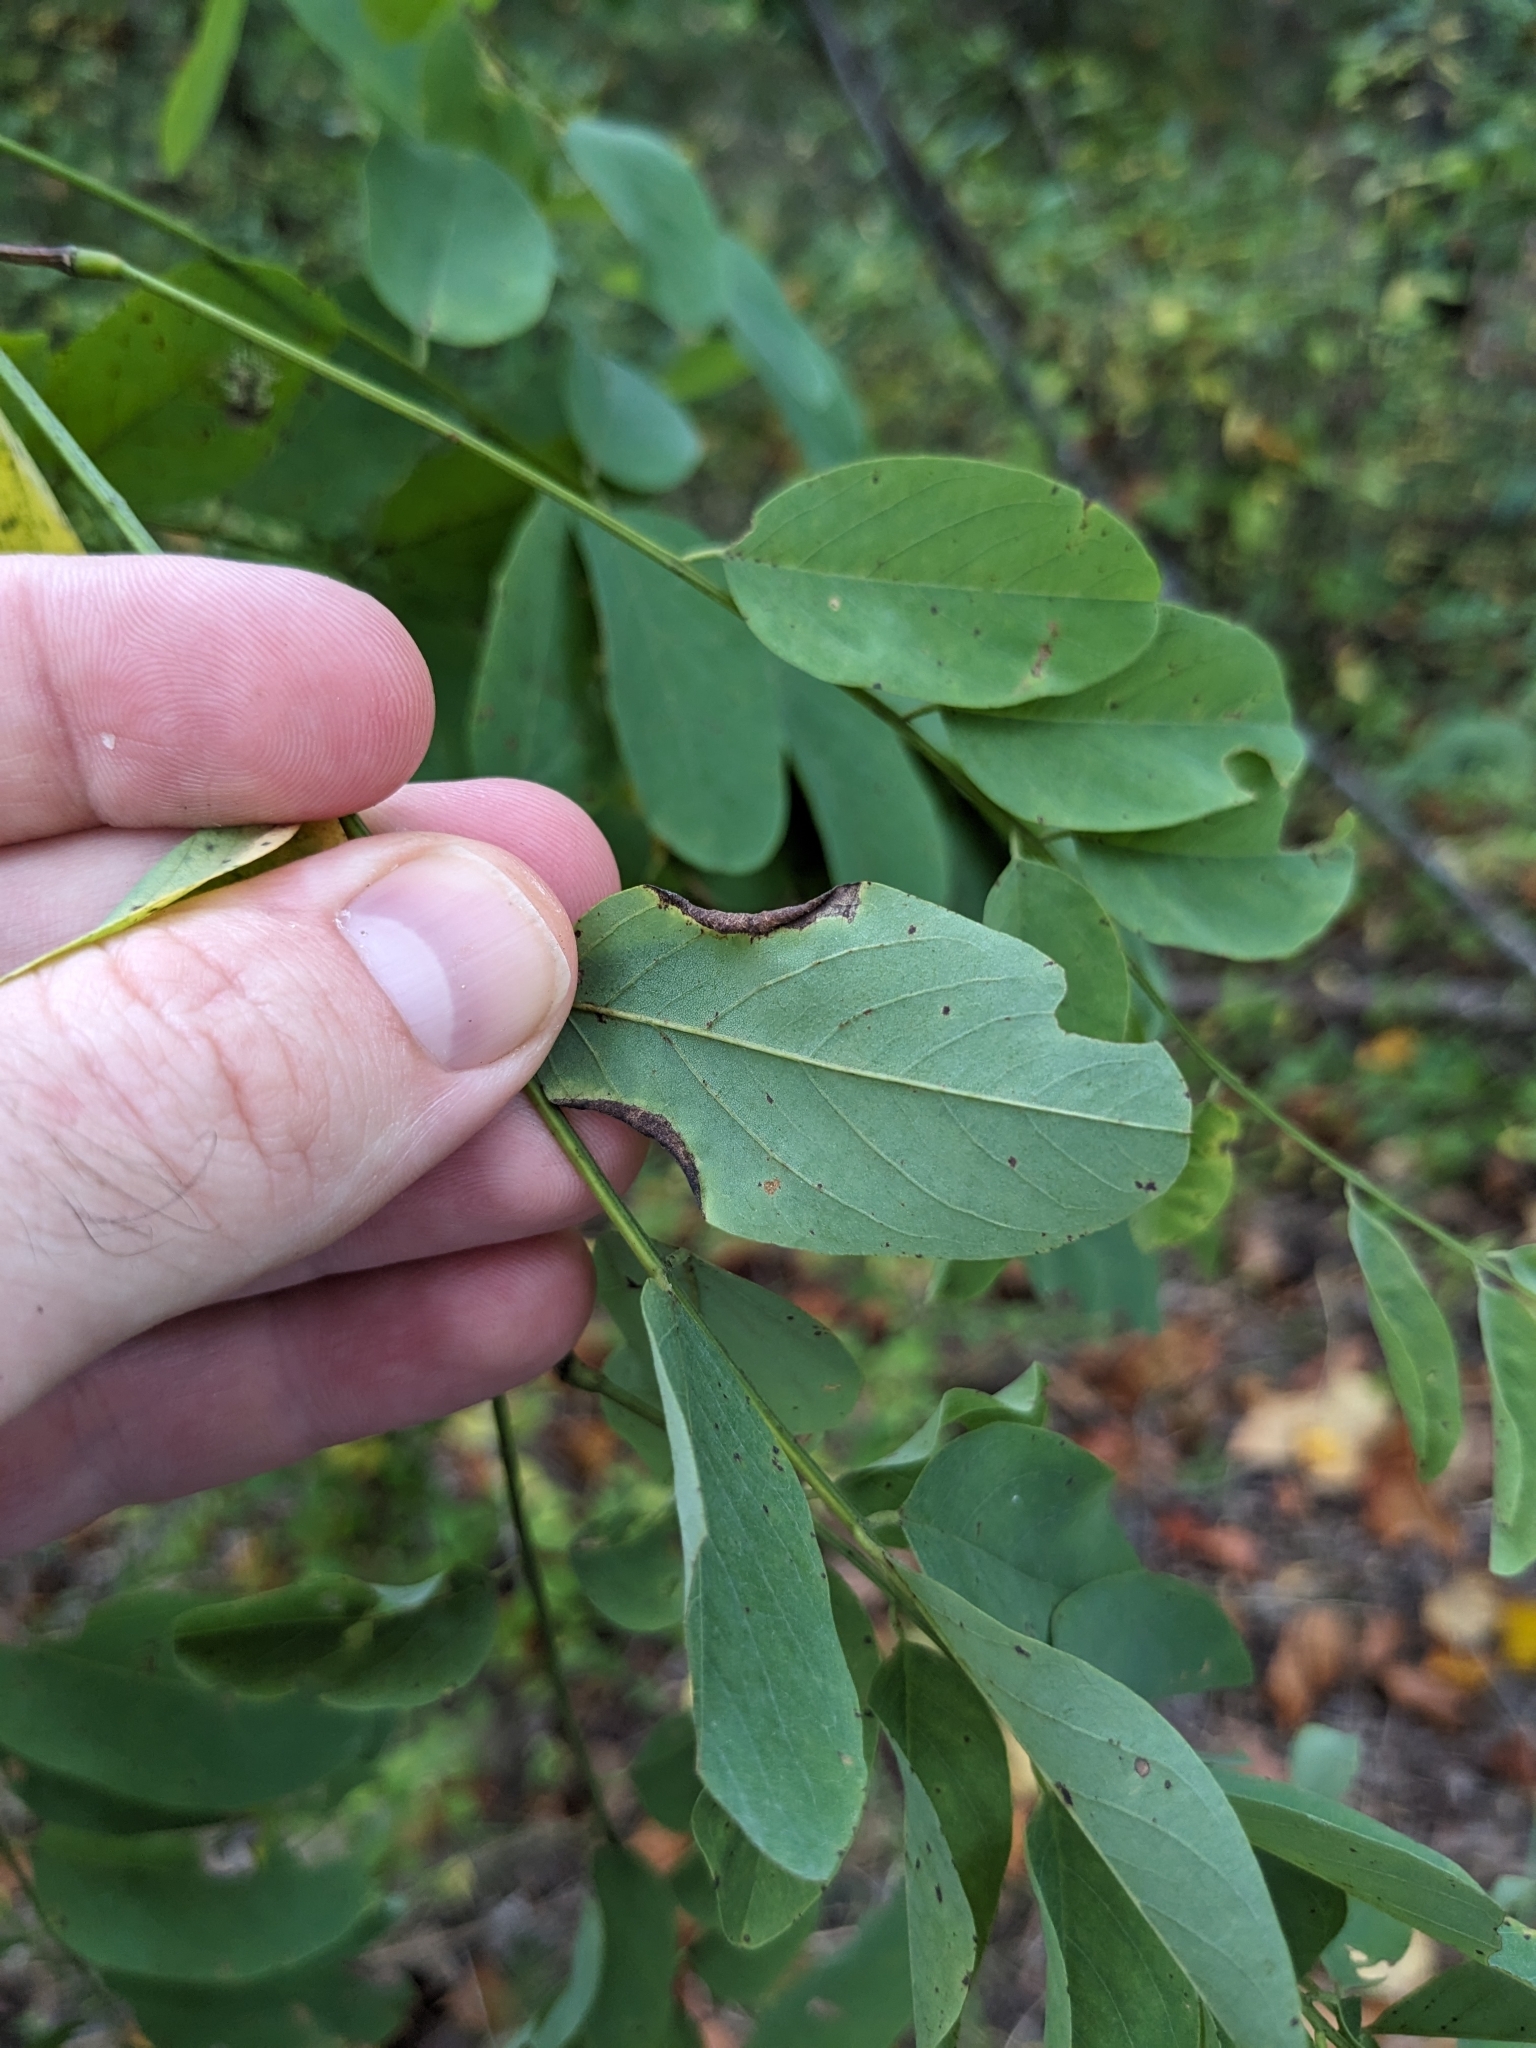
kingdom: Animalia
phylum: Arthropoda
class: Insecta
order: Diptera
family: Cecidomyiidae
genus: Obolodiplosis
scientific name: Obolodiplosis robiniae
